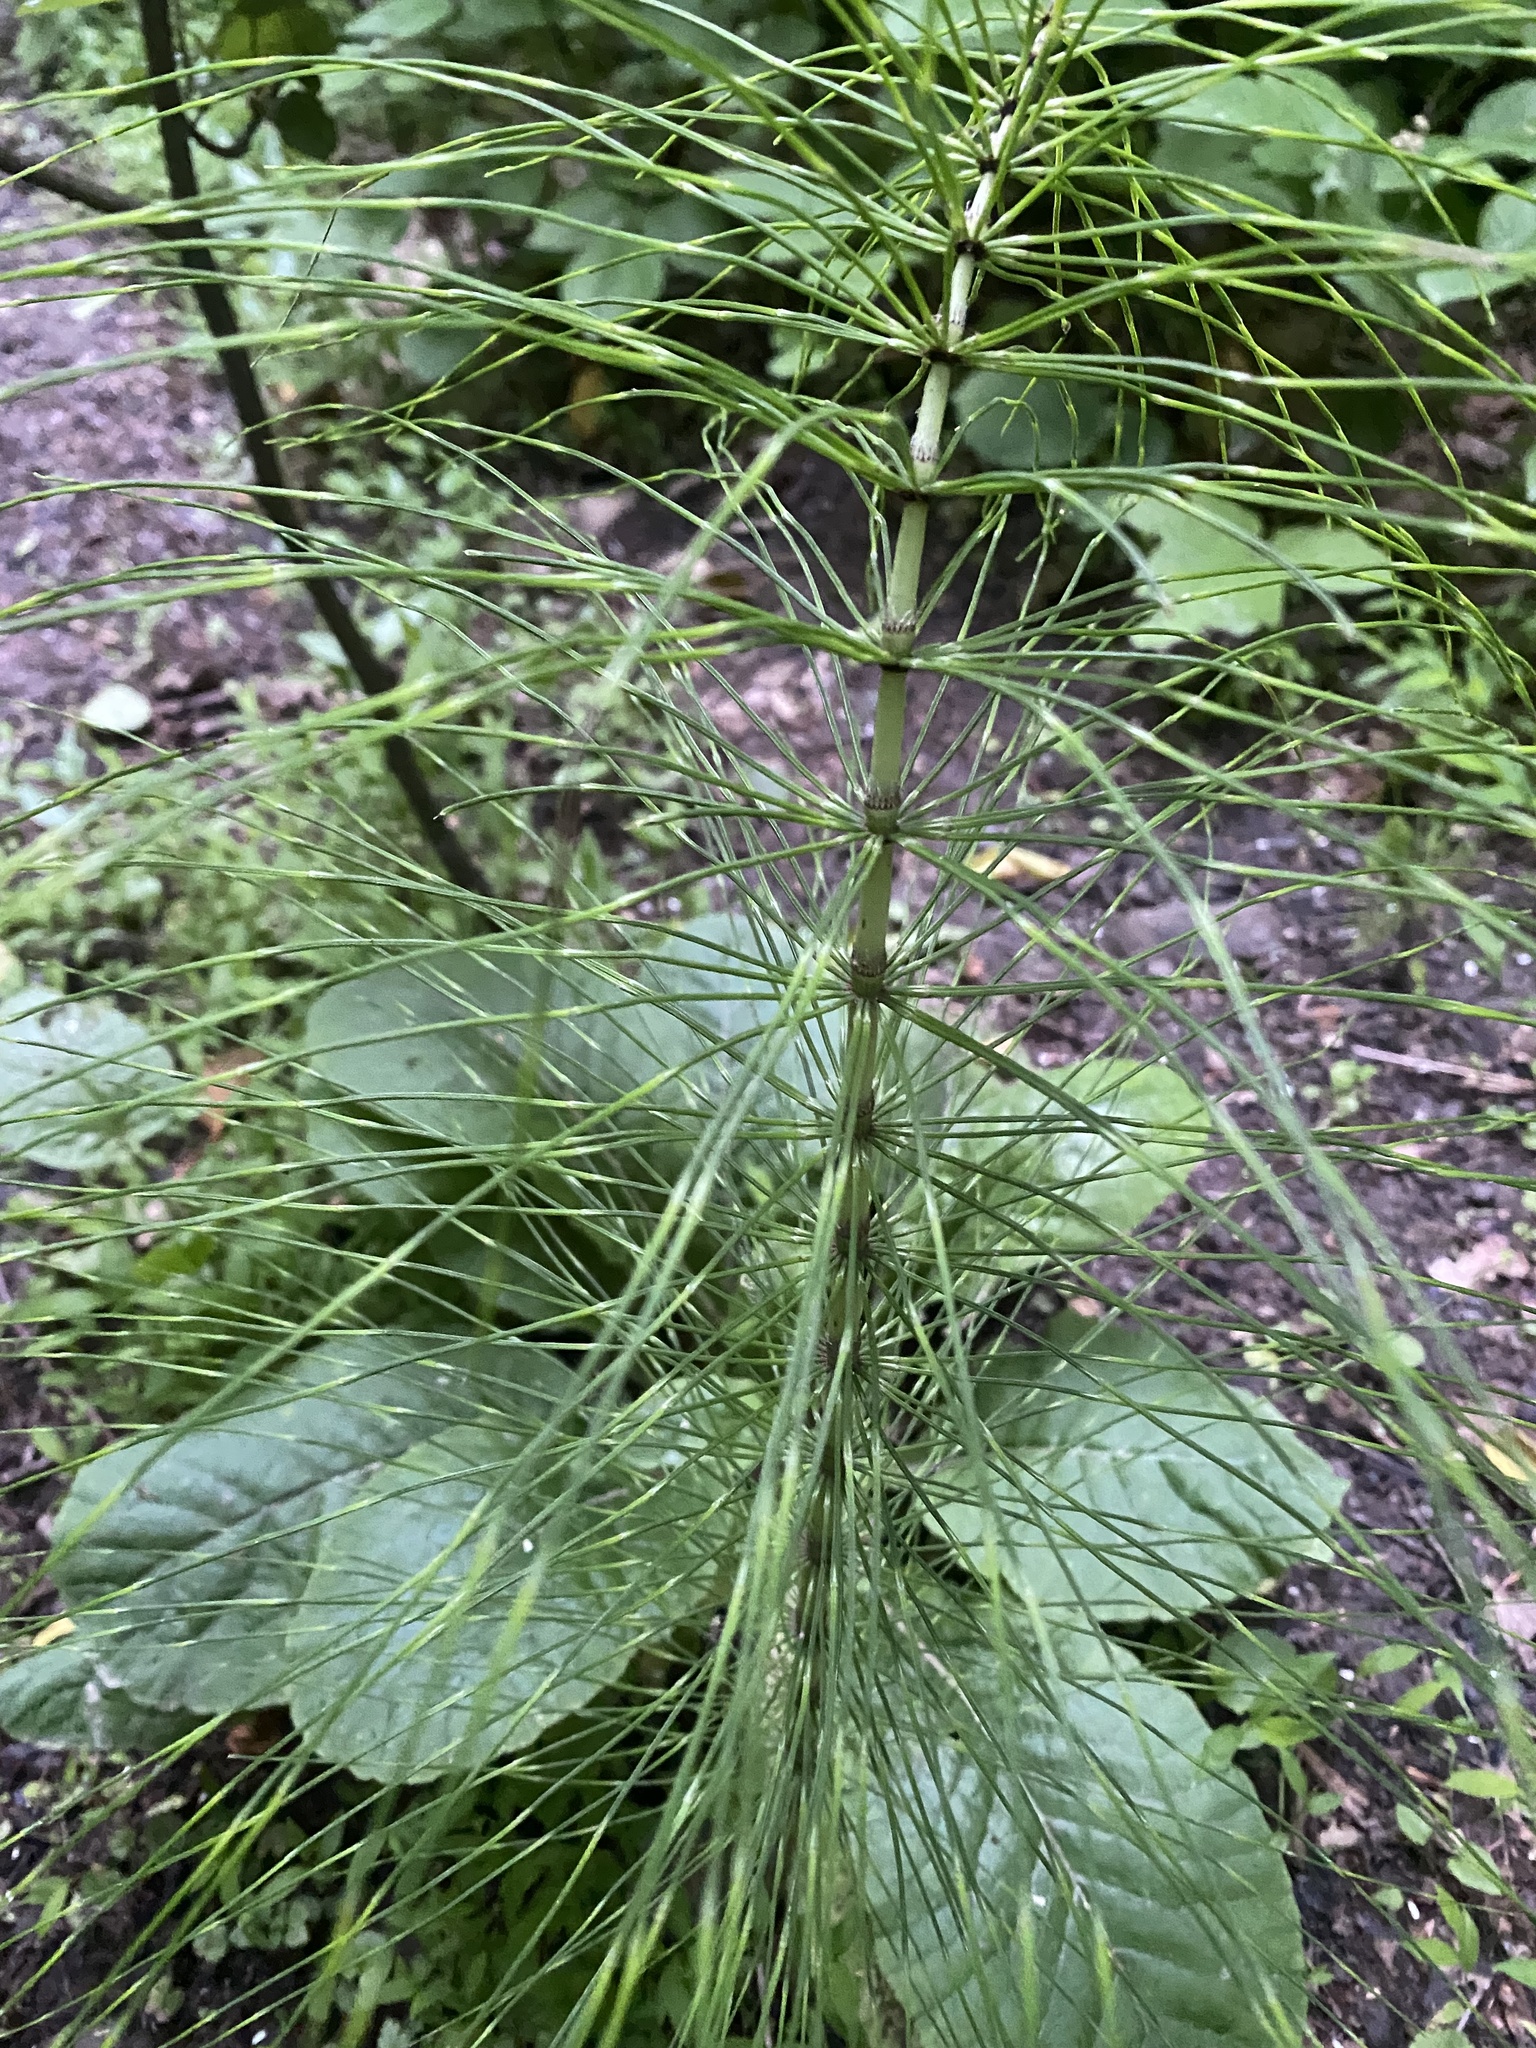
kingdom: Plantae
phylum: Tracheophyta
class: Polypodiopsida
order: Equisetales
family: Equisetaceae
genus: Equisetum
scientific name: Equisetum telmateia
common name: Great horsetail
